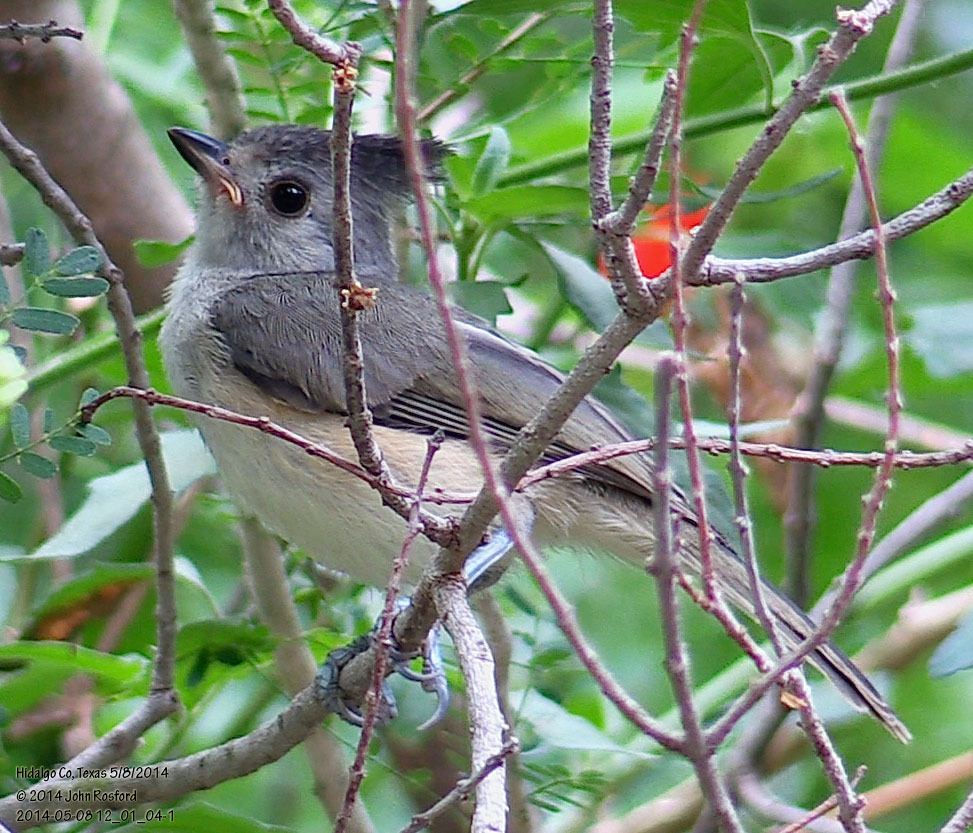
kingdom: Animalia
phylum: Chordata
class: Aves
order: Passeriformes
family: Paridae
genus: Baeolophus
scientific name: Baeolophus atricristatus
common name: Black-crested titmouse
